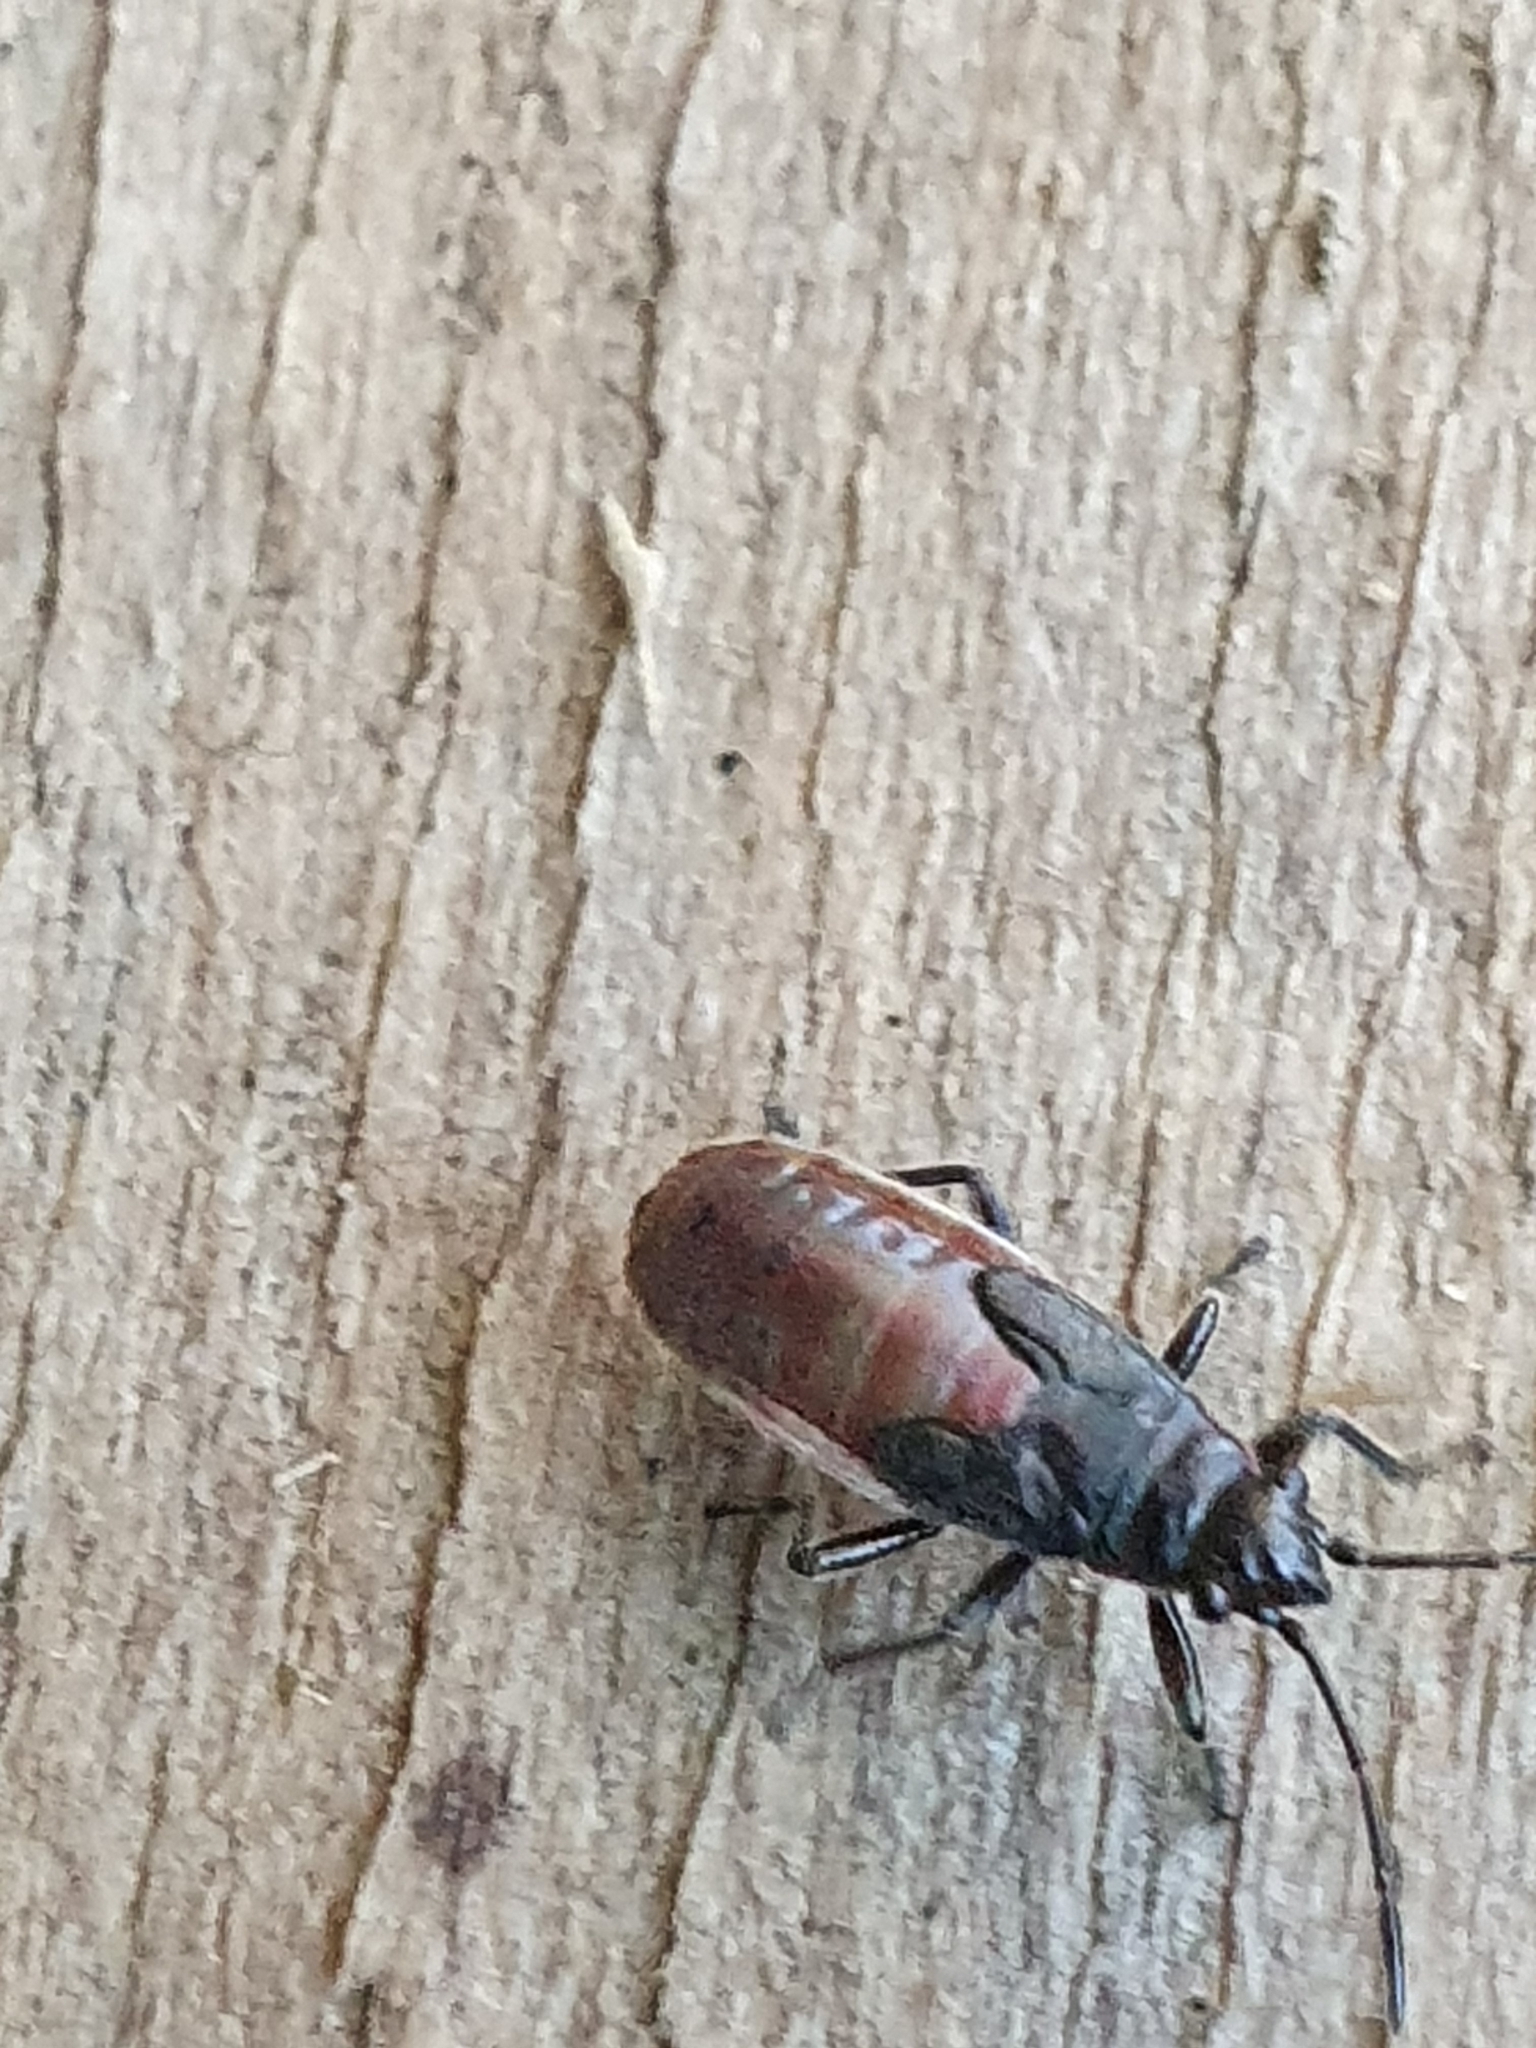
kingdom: Animalia
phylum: Arthropoda
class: Insecta
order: Hemiptera
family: Lygaeidae
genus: Arocatus
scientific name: Arocatus rusticus
